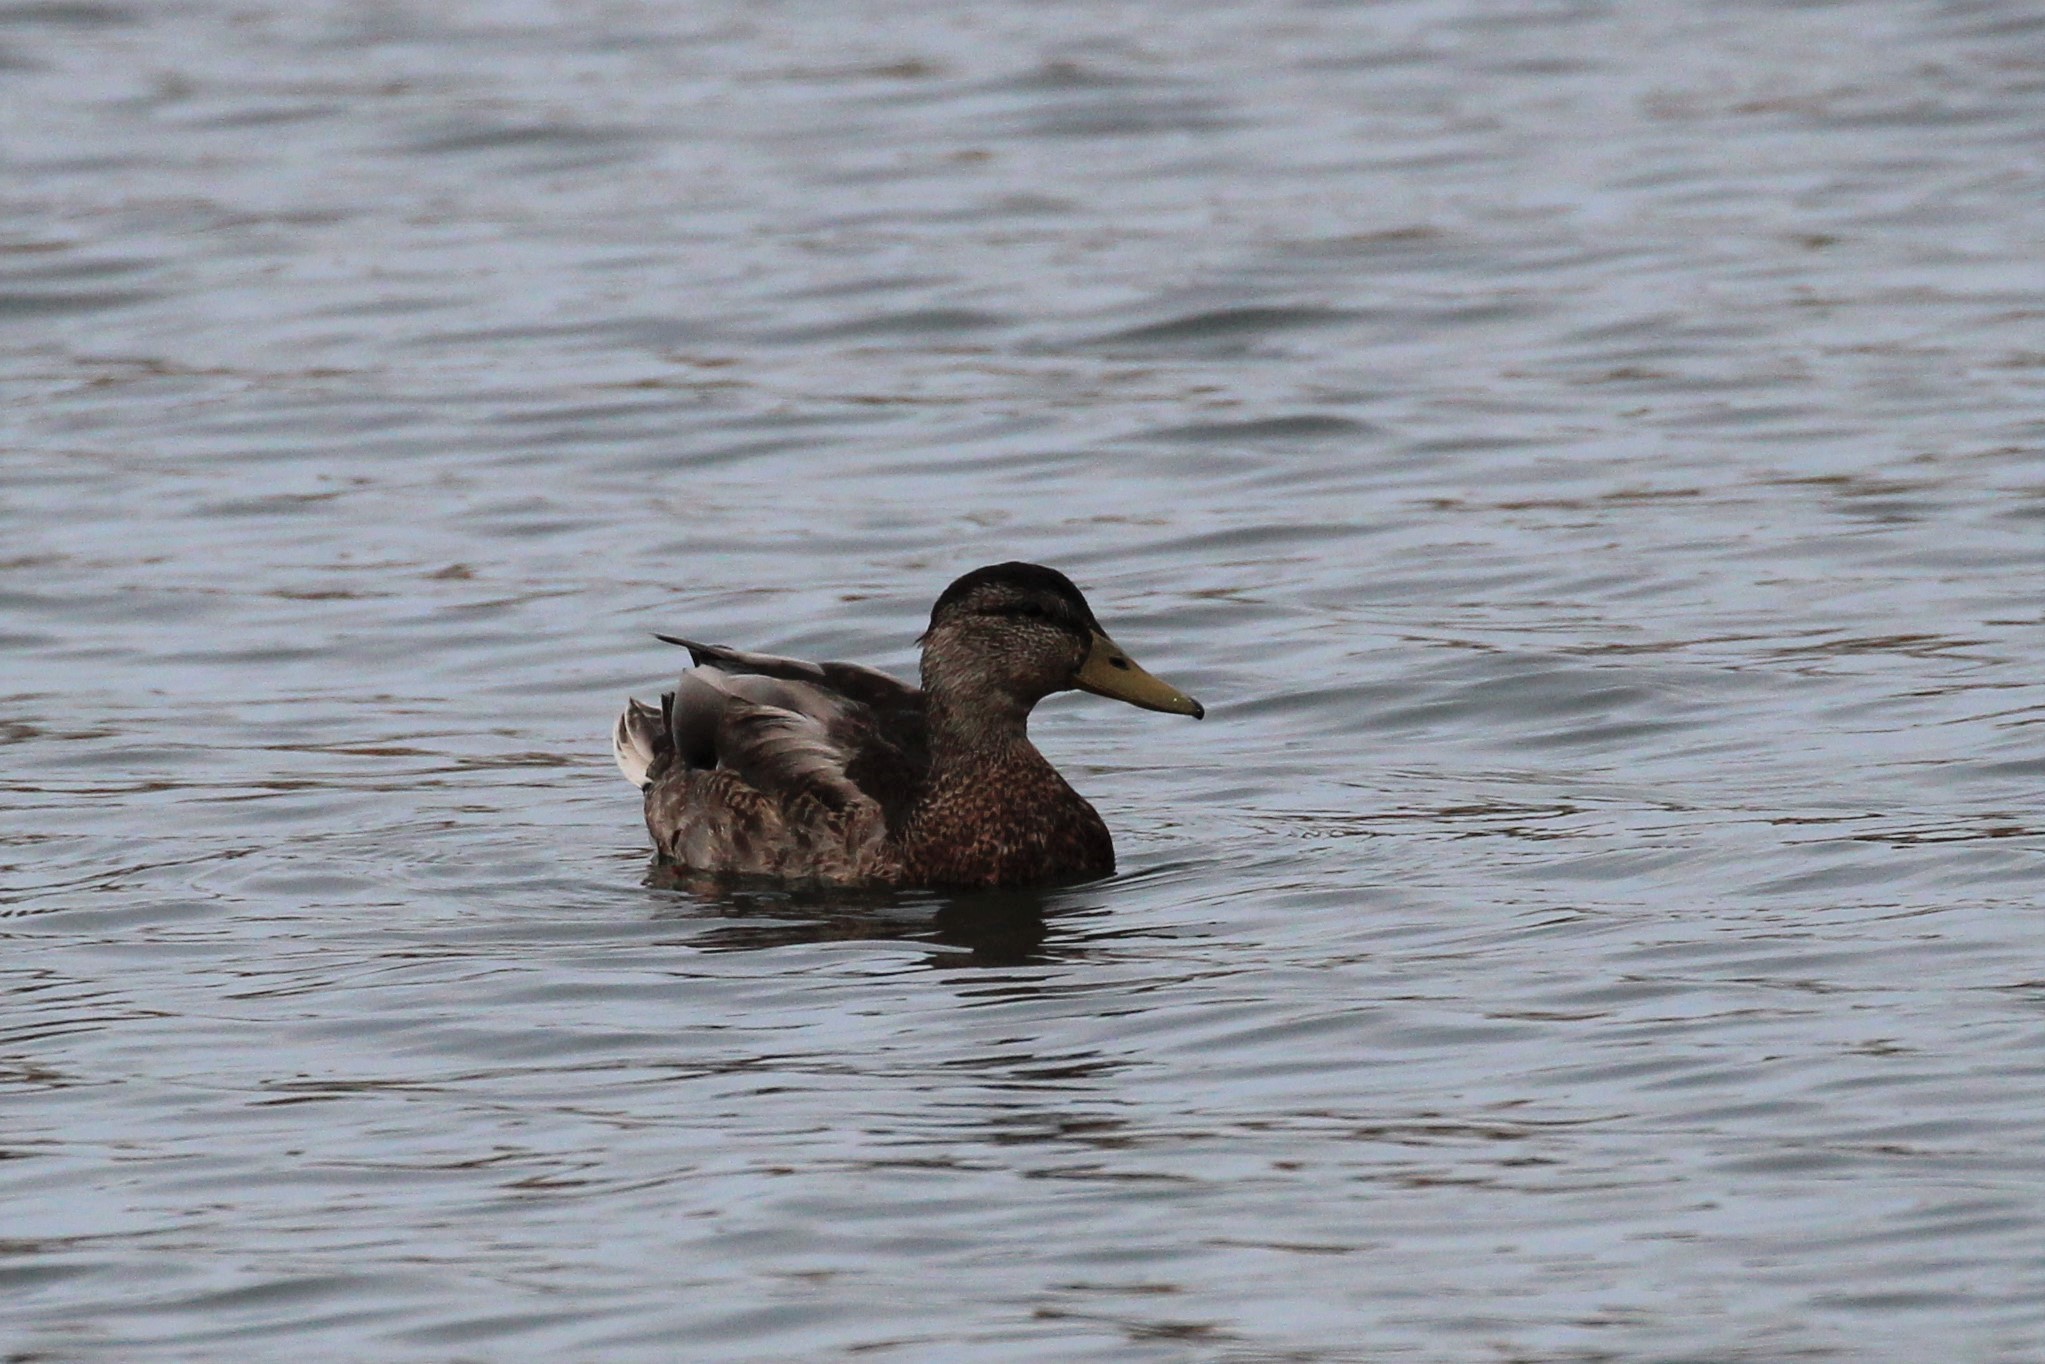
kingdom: Animalia
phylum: Chordata
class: Aves
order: Anseriformes
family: Anatidae
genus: Anas
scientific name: Anas platyrhynchos
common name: Mallard
